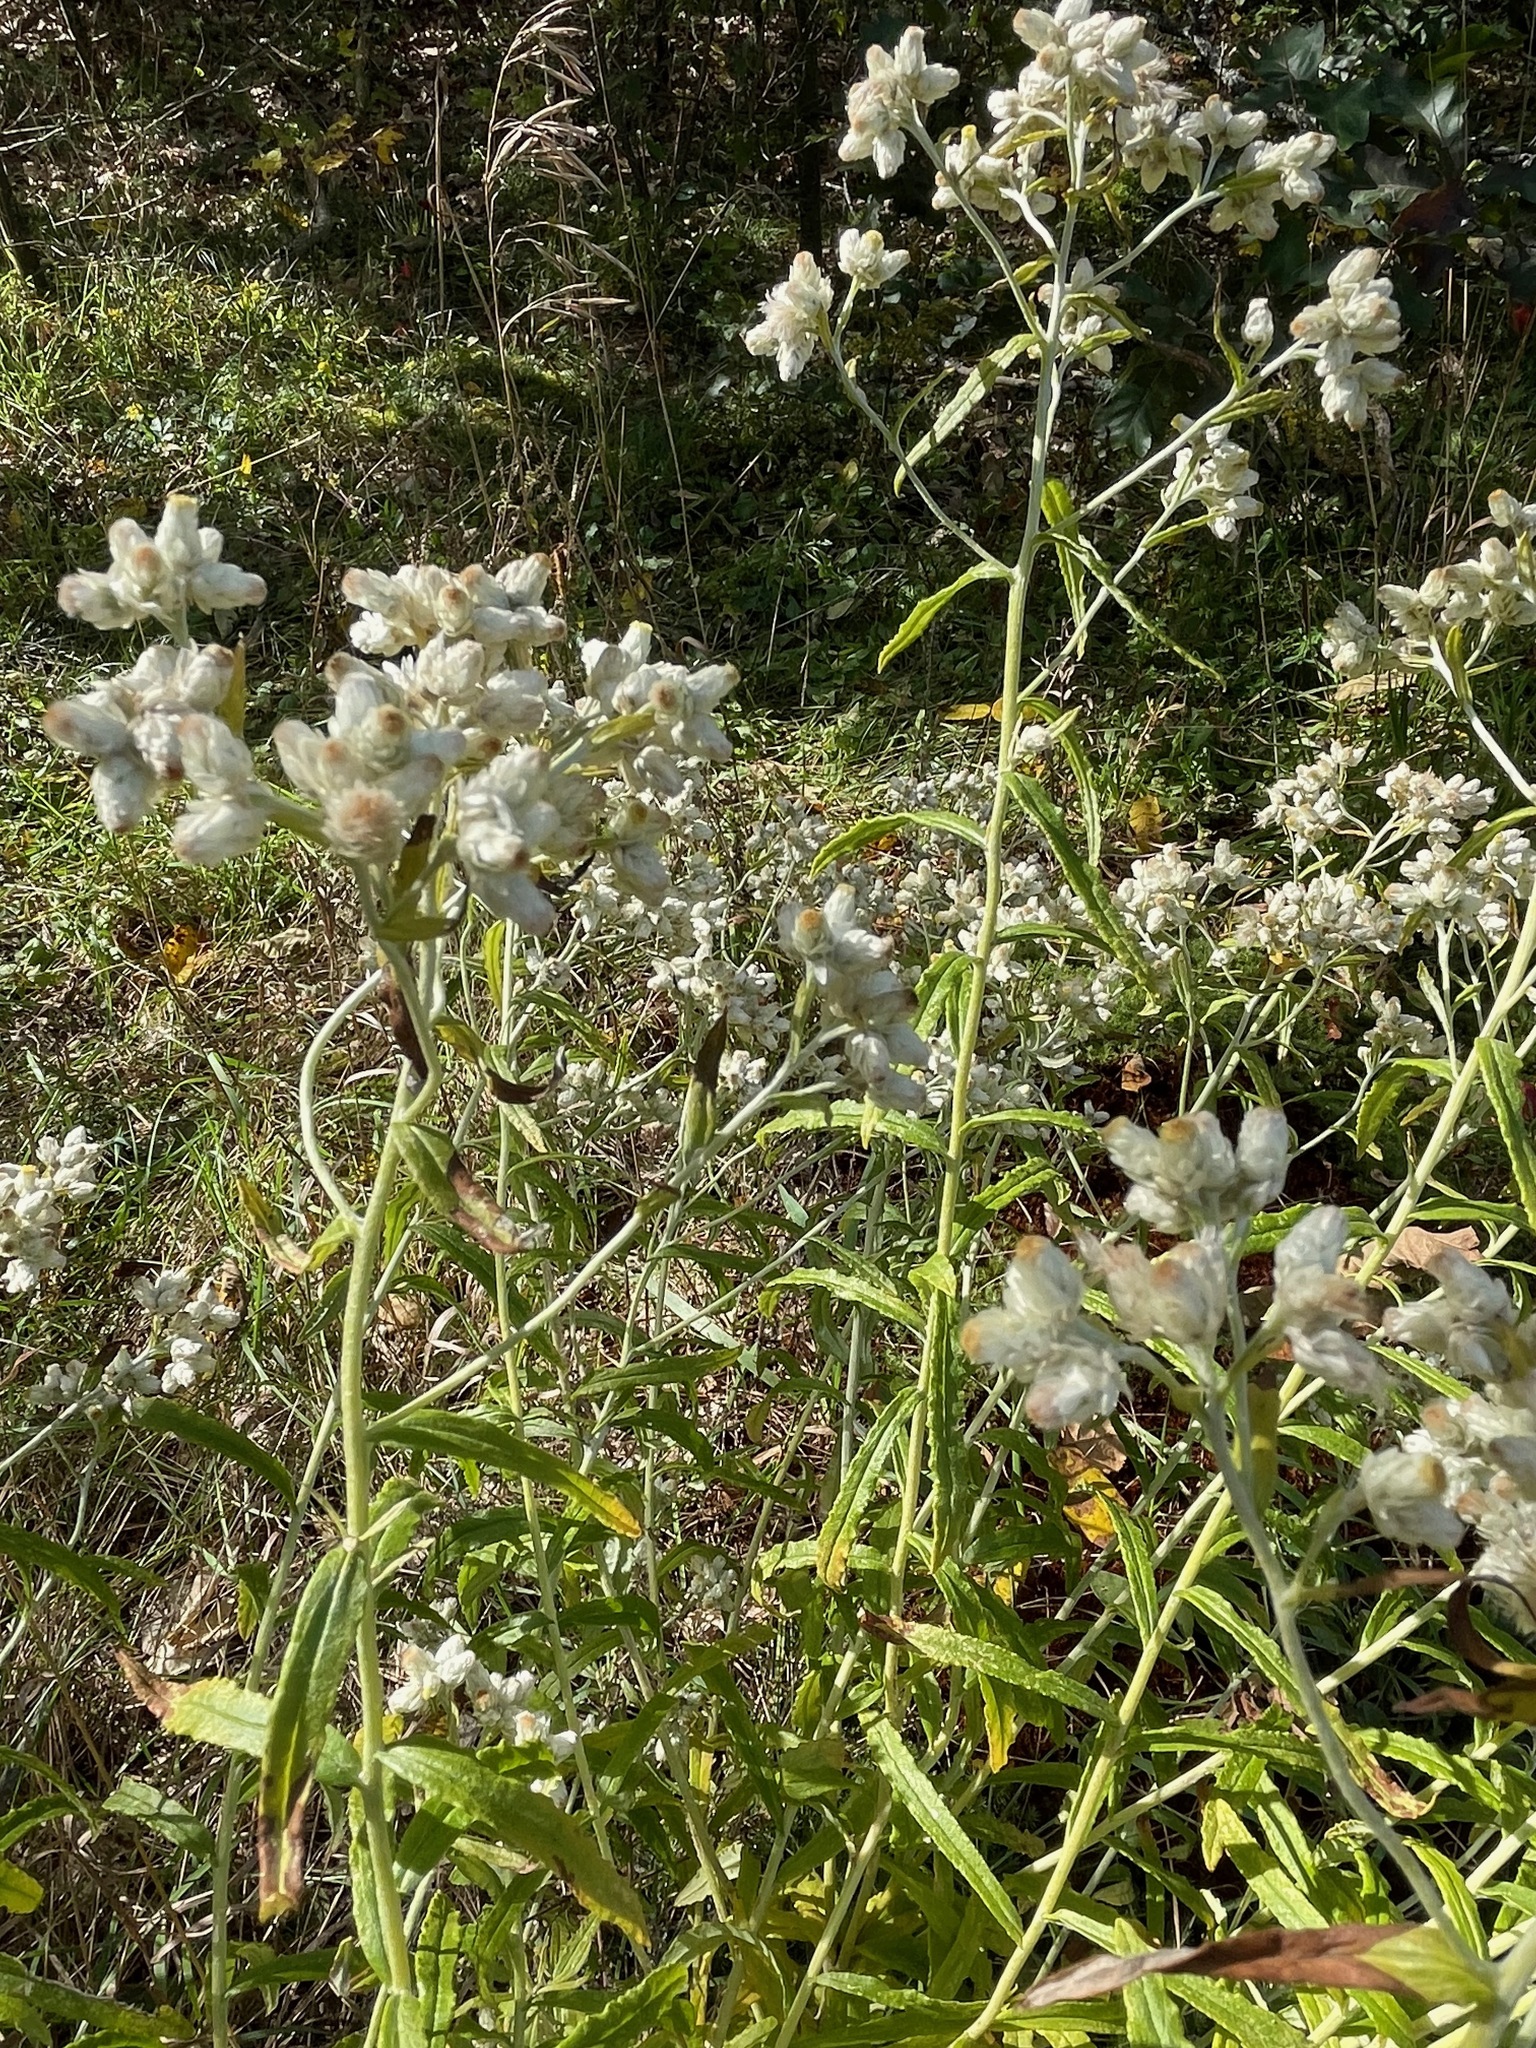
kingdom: Plantae
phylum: Tracheophyta
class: Magnoliopsida
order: Asterales
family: Asteraceae
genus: Pseudognaphalium
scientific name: Pseudognaphalium obtusifolium
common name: Eastern rabbit-tobacco
